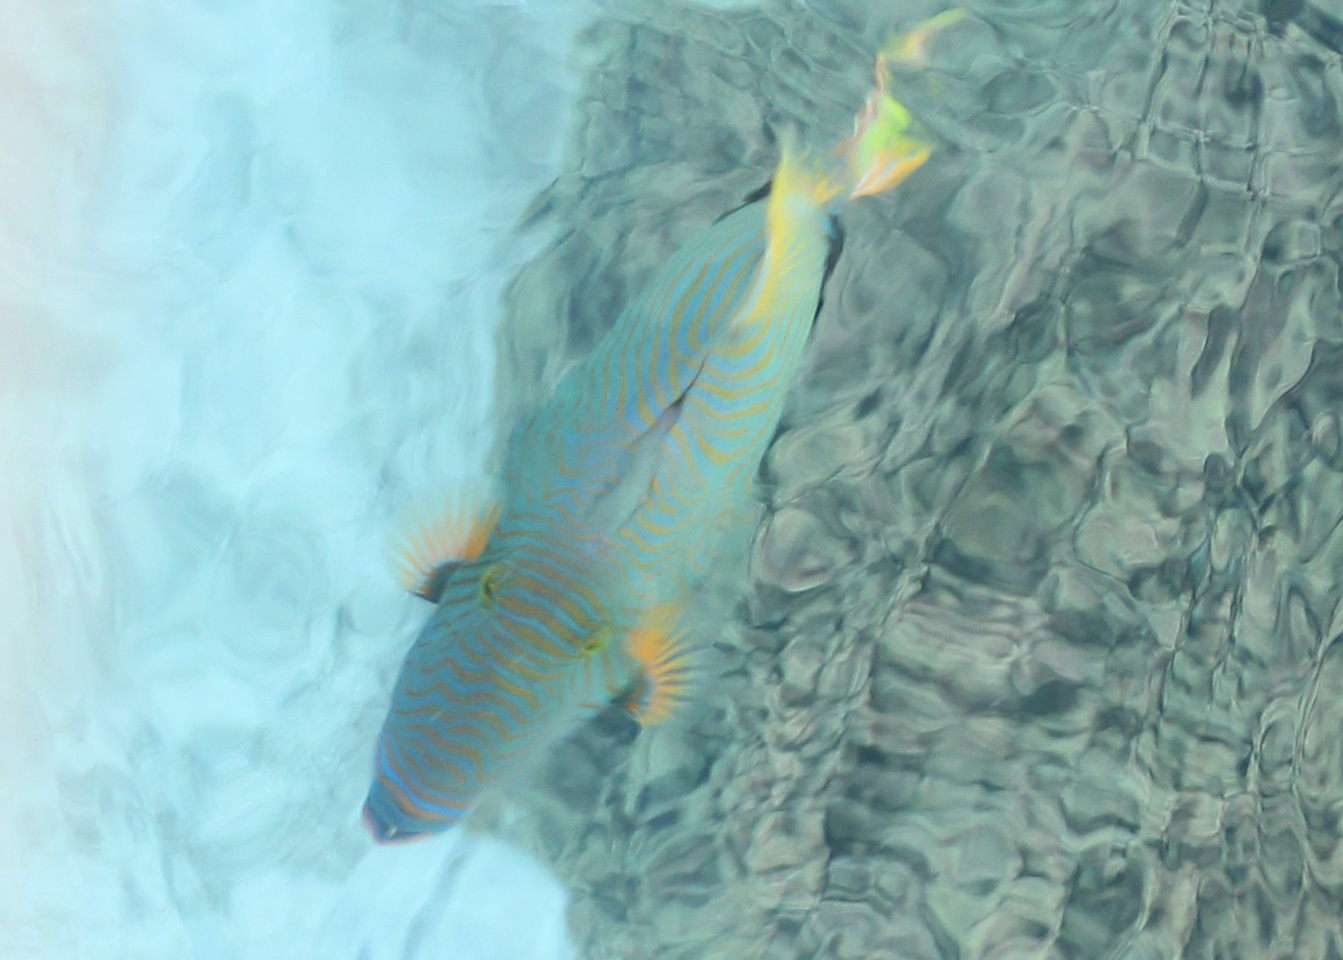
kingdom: Animalia
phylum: Chordata
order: Tetraodontiformes
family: Balistidae
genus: Balistapus
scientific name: Balistapus undulatus
